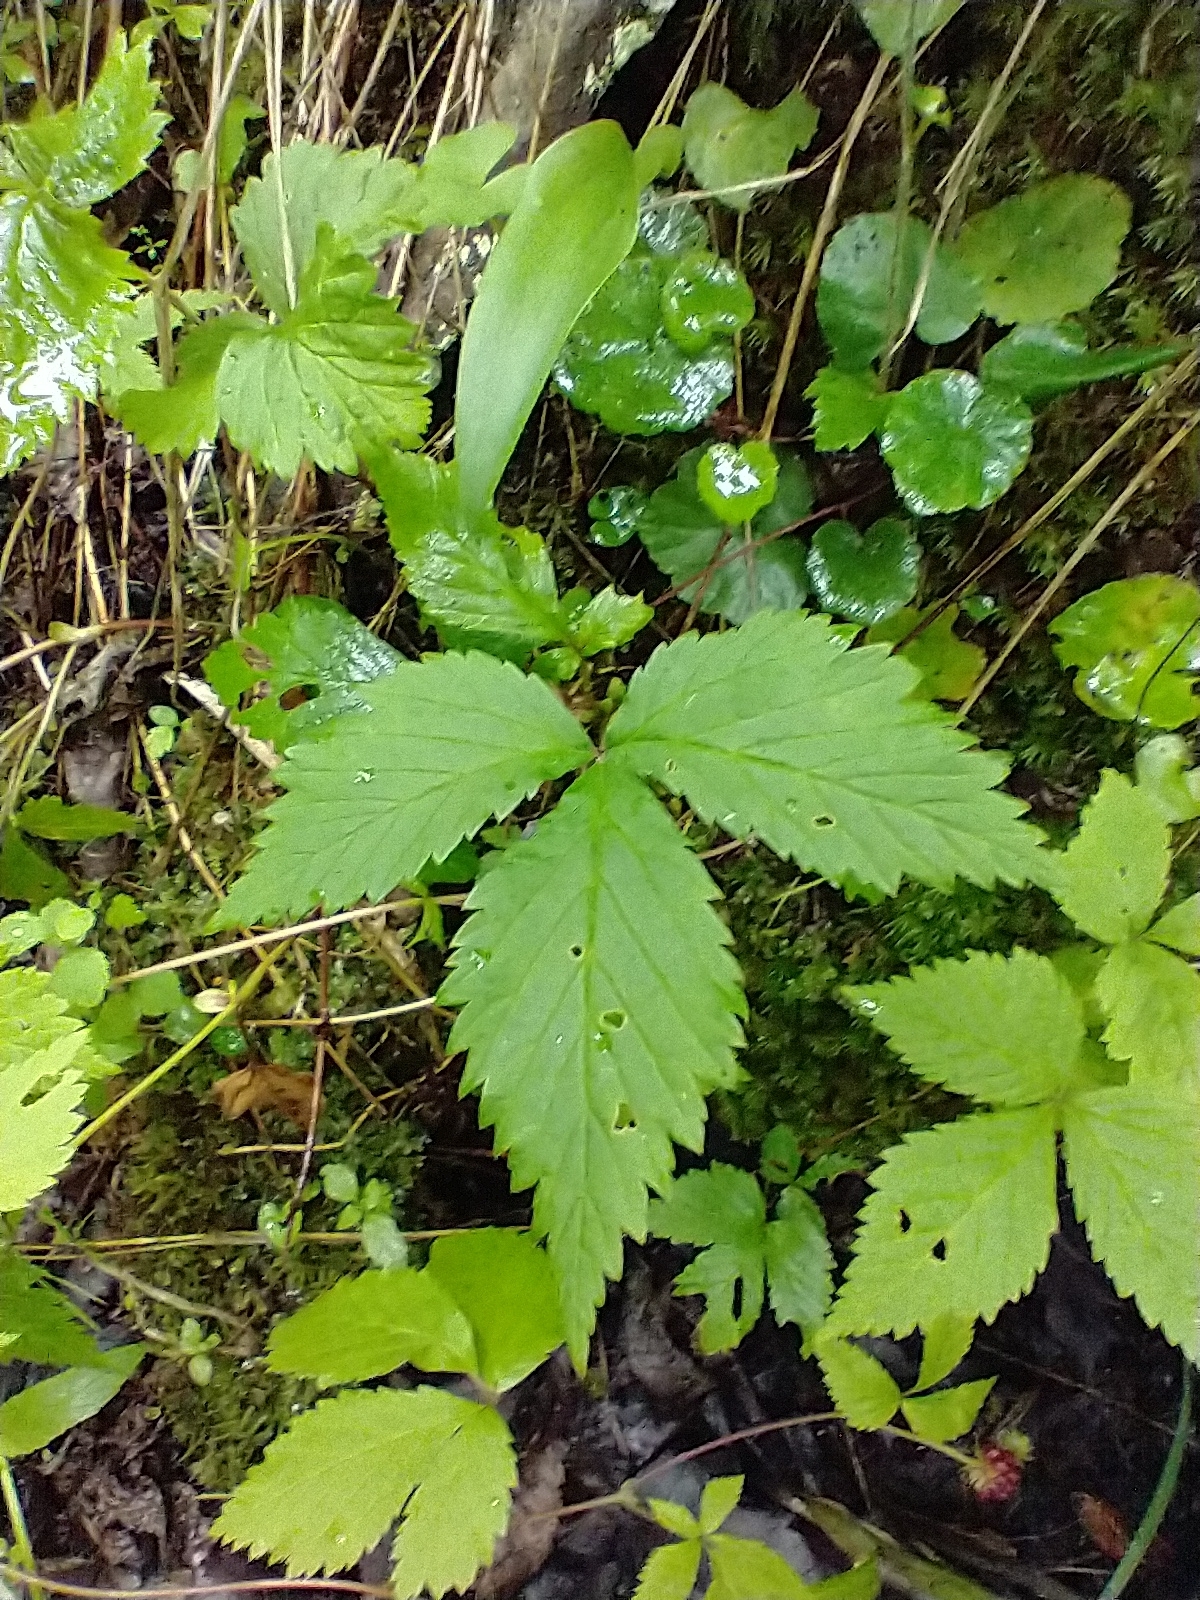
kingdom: Plantae
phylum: Tracheophyta
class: Magnoliopsida
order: Rosales
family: Rosaceae
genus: Rubus
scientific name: Rubus pubescens
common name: Dwarf raspberry
